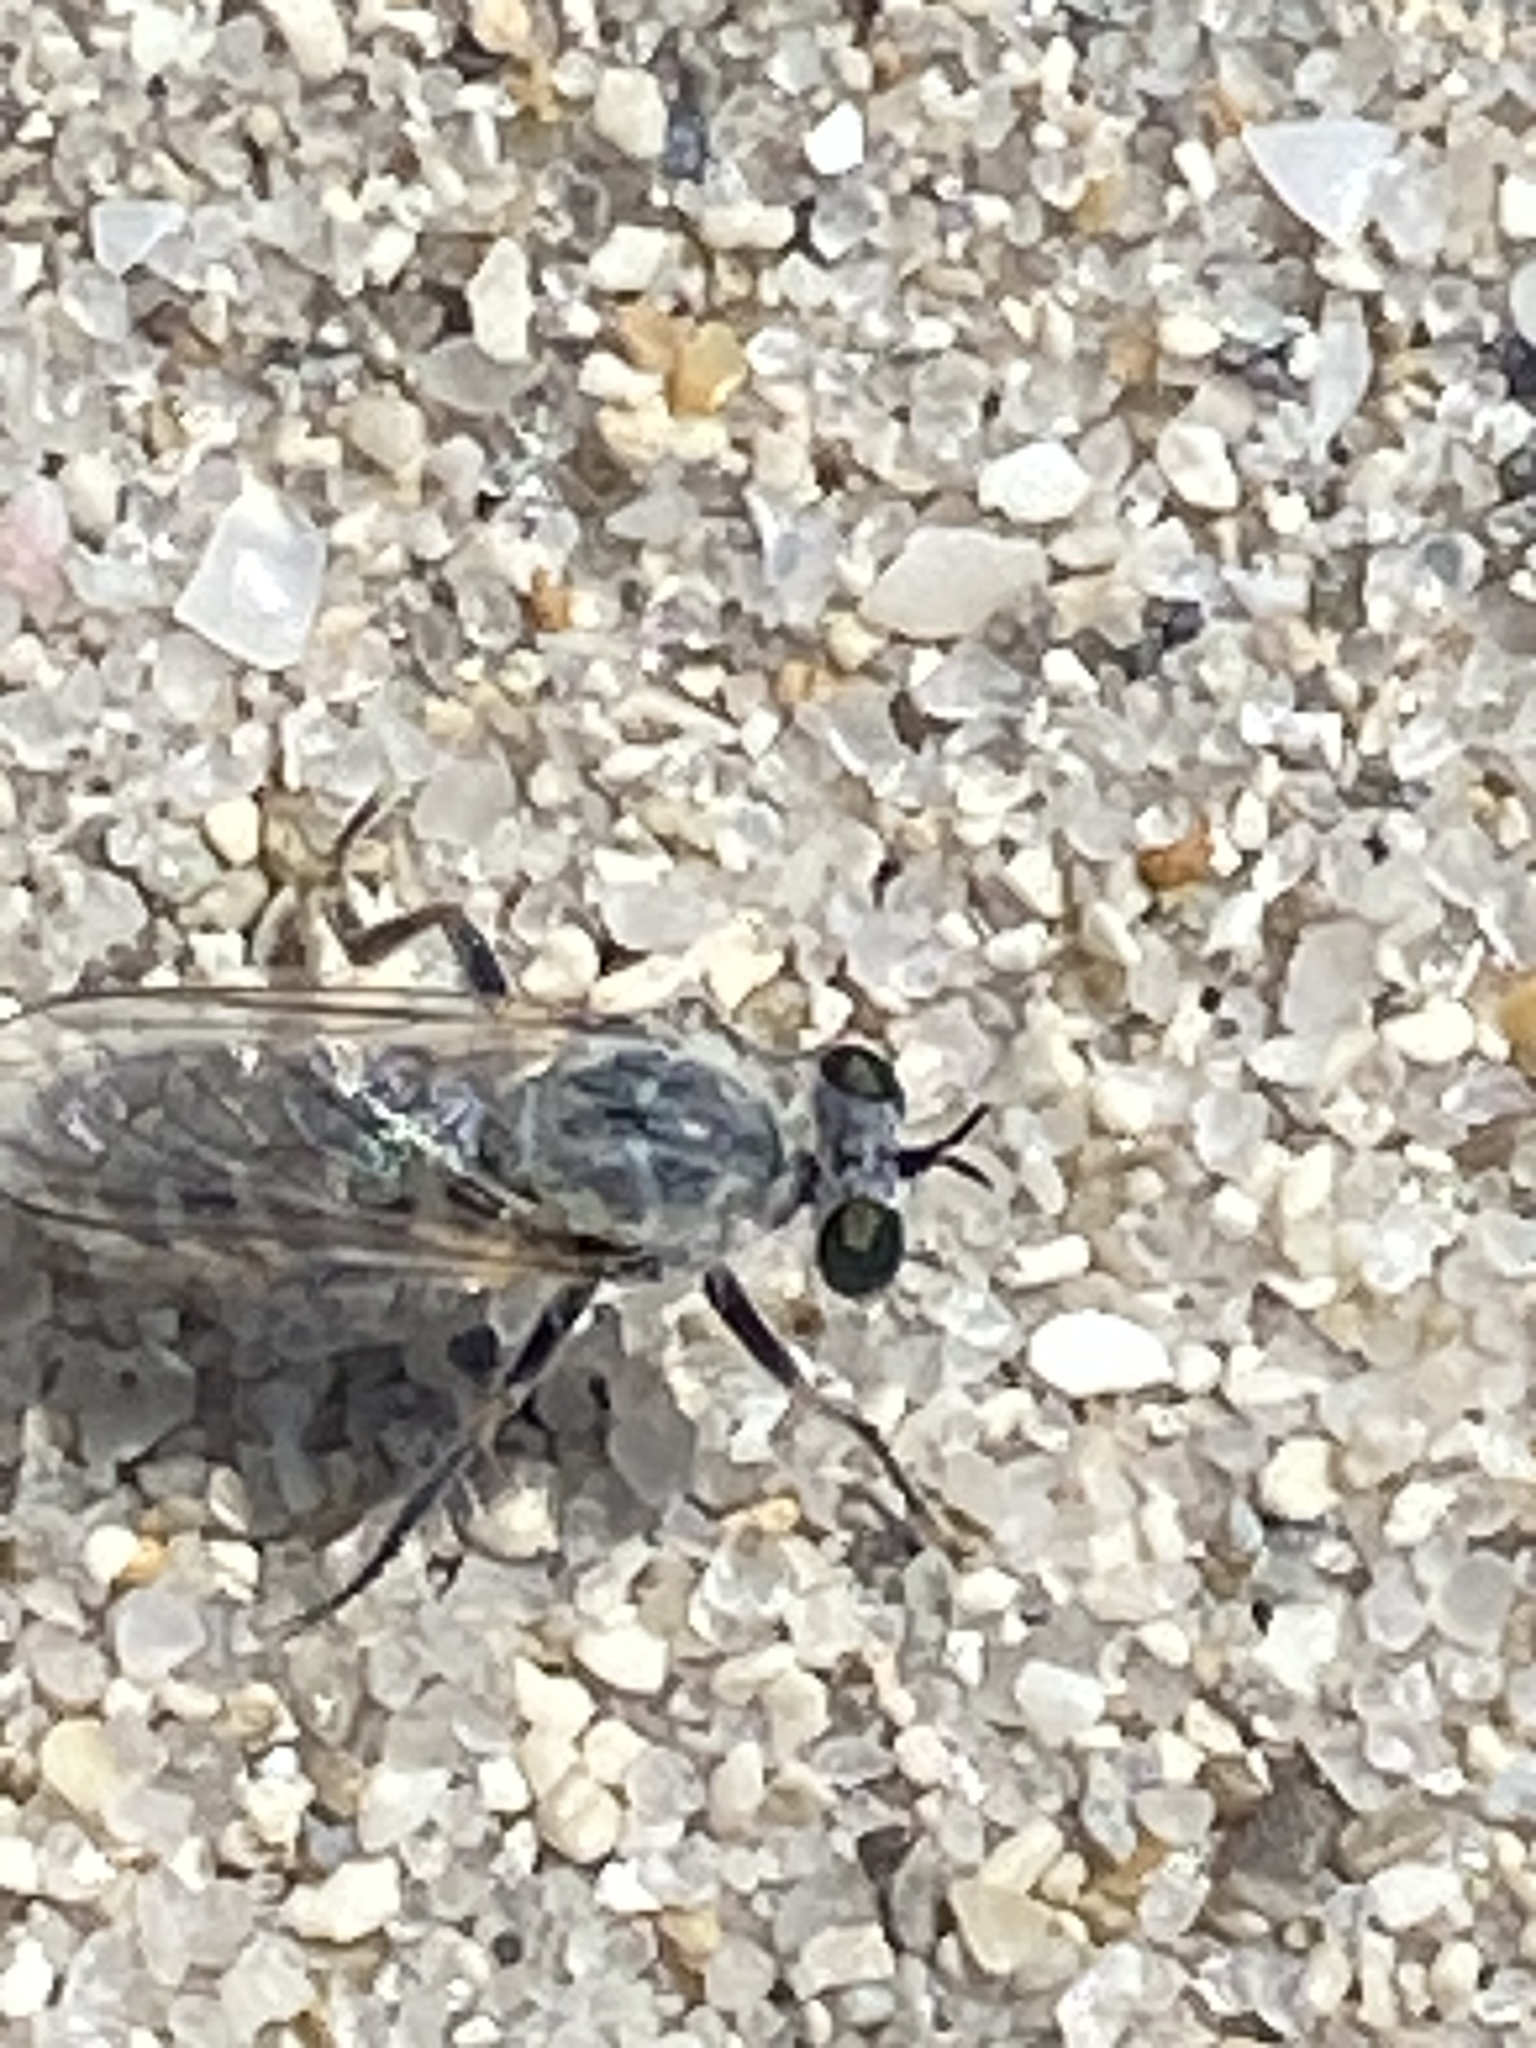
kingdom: Animalia
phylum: Arthropoda
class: Insecta
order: Diptera
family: Asilidae
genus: Laphystia
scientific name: Laphystia litoralis
